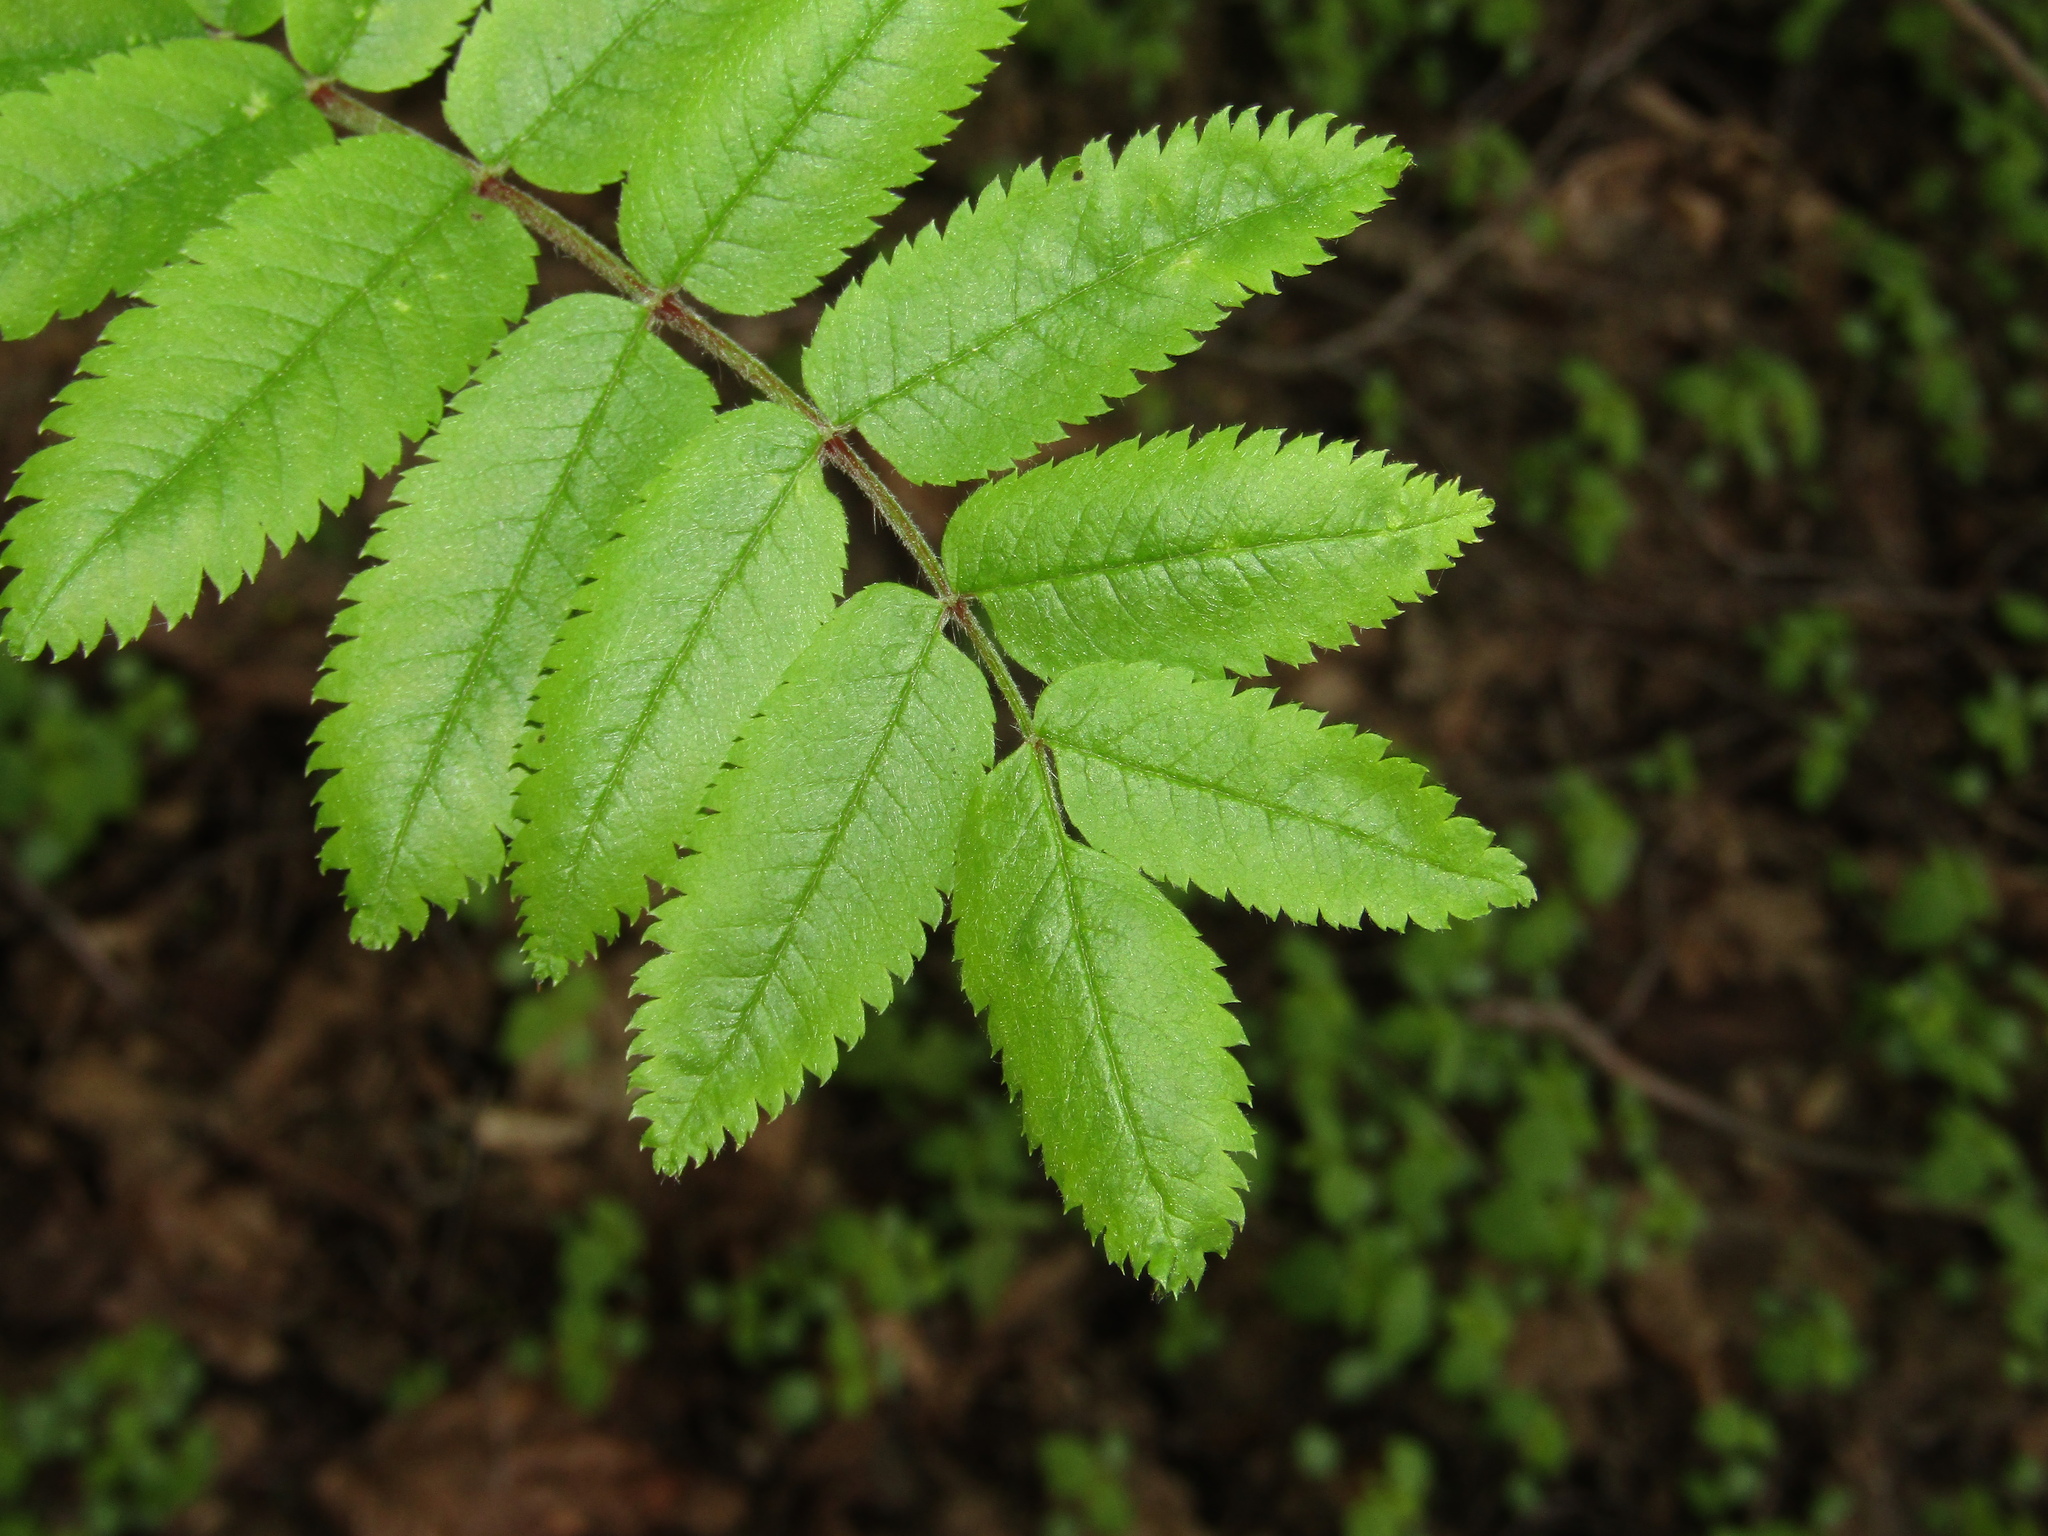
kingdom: Plantae
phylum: Tracheophyta
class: Magnoliopsida
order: Rosales
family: Rosaceae
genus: Sorbus
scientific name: Sorbus aucuparia
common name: Rowan
